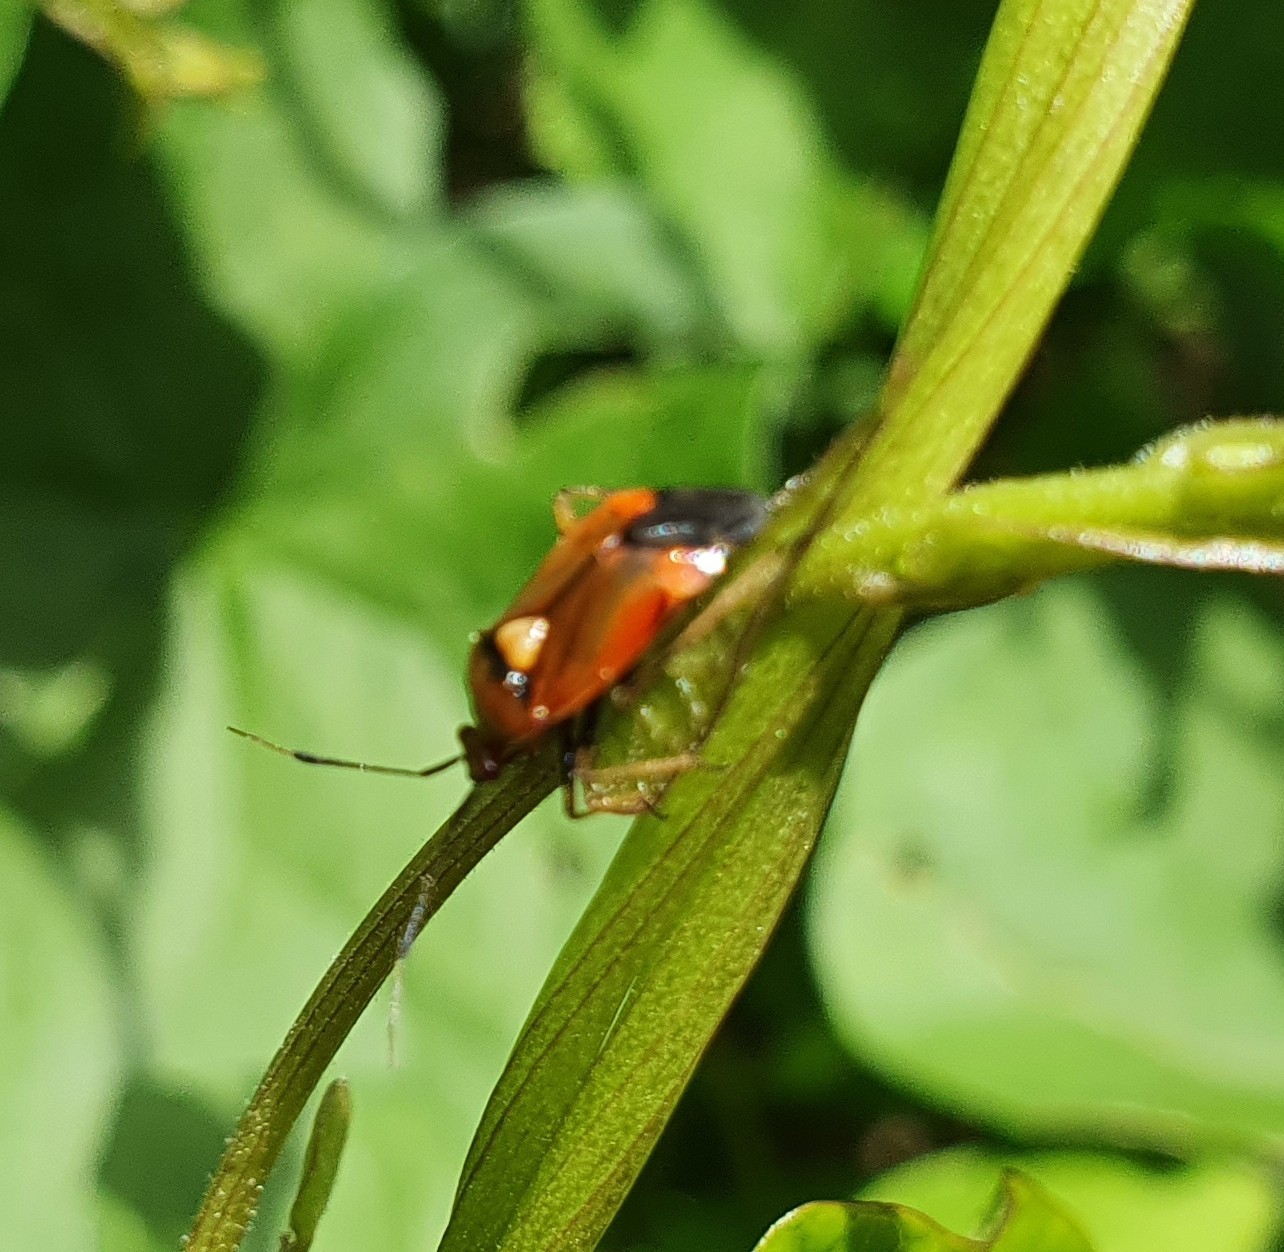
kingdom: Animalia
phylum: Arthropoda
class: Insecta
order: Hemiptera
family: Miridae
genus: Deraeocoris
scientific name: Deraeocoris ruber
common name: Plant bug
